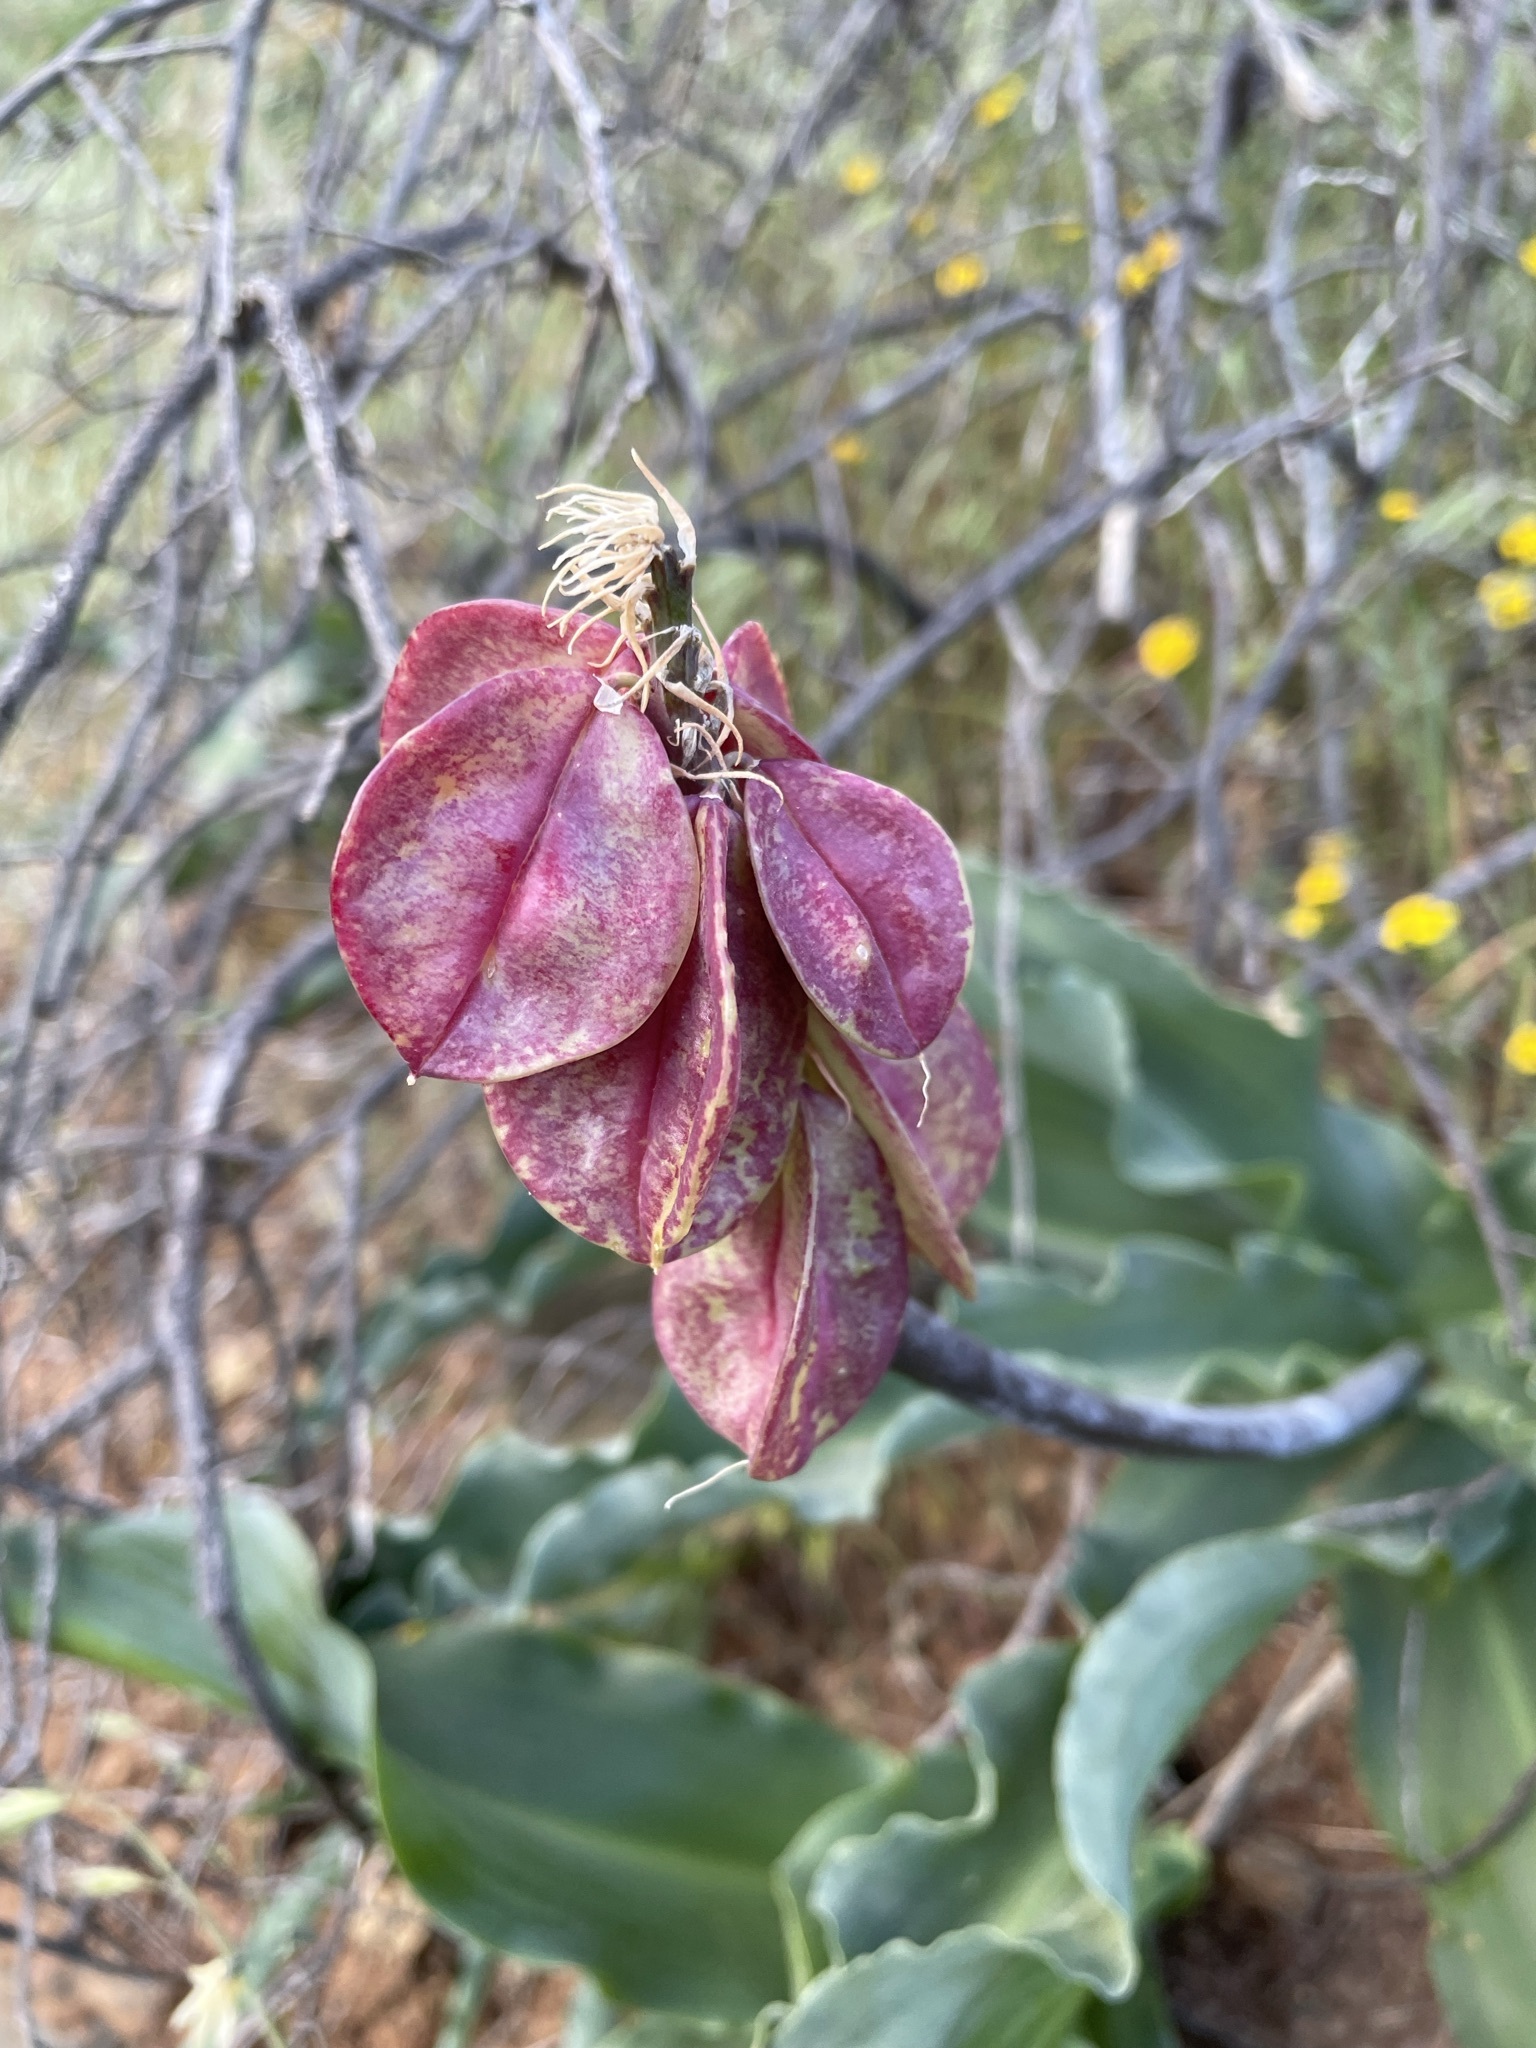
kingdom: Plantae
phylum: Tracheophyta
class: Liliopsida
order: Asparagales
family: Asparagaceae
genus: Veltheimia
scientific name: Veltheimia capensis
